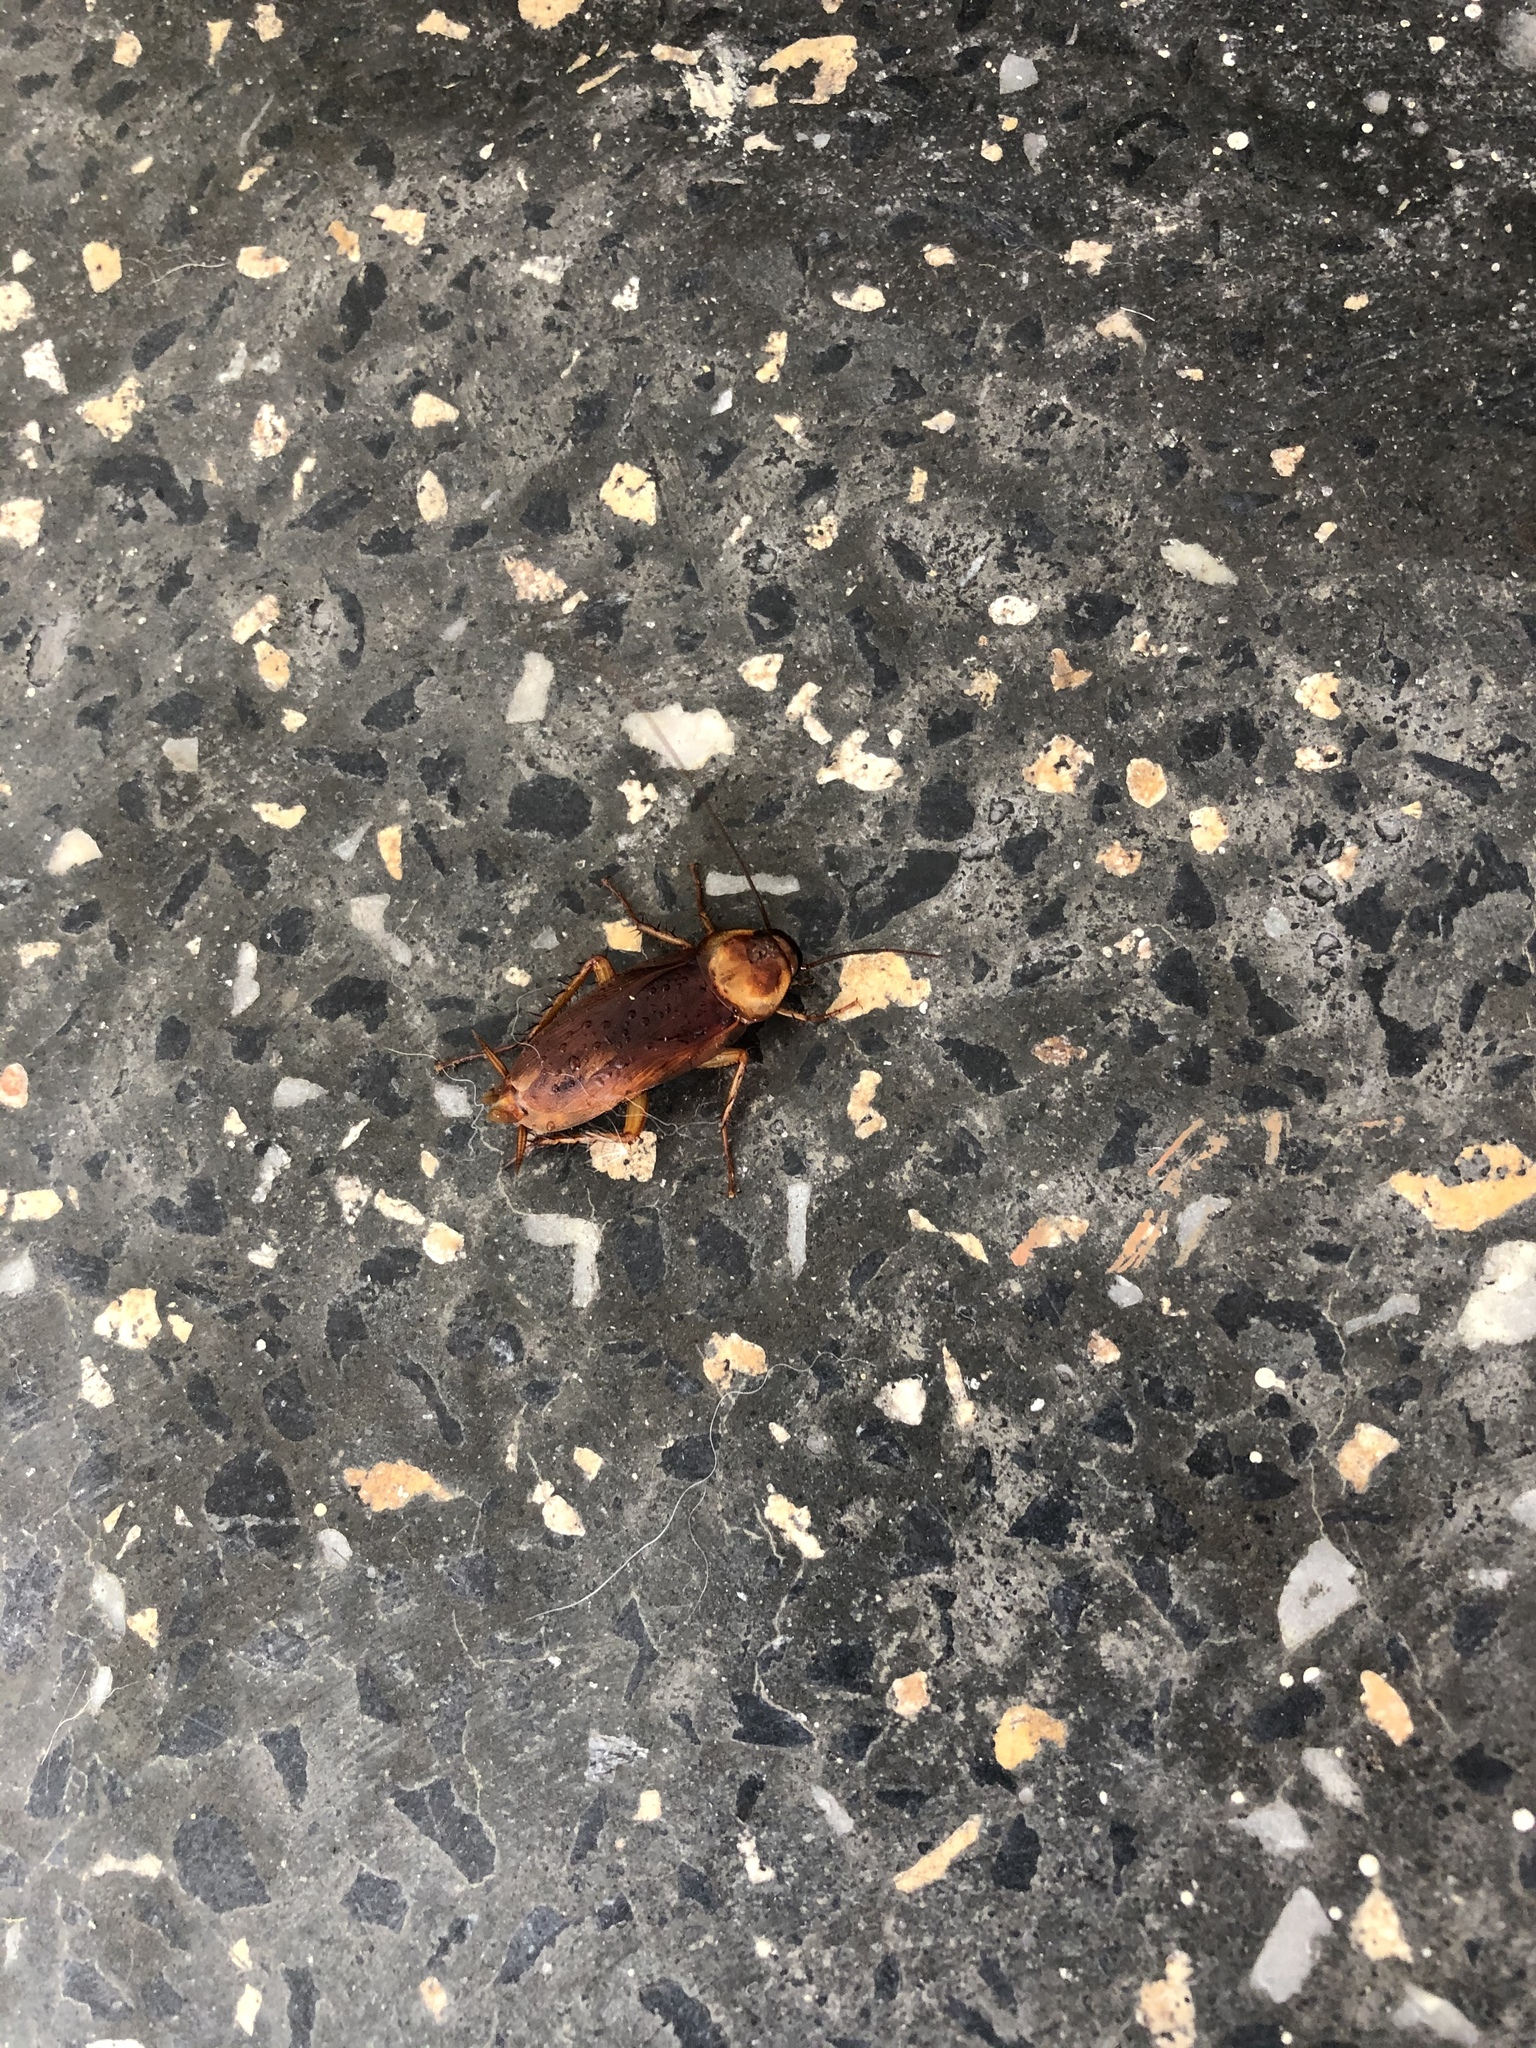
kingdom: Animalia
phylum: Arthropoda
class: Insecta
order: Blattodea
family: Blattidae
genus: Periplaneta
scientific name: Periplaneta americana
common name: American cockroach
